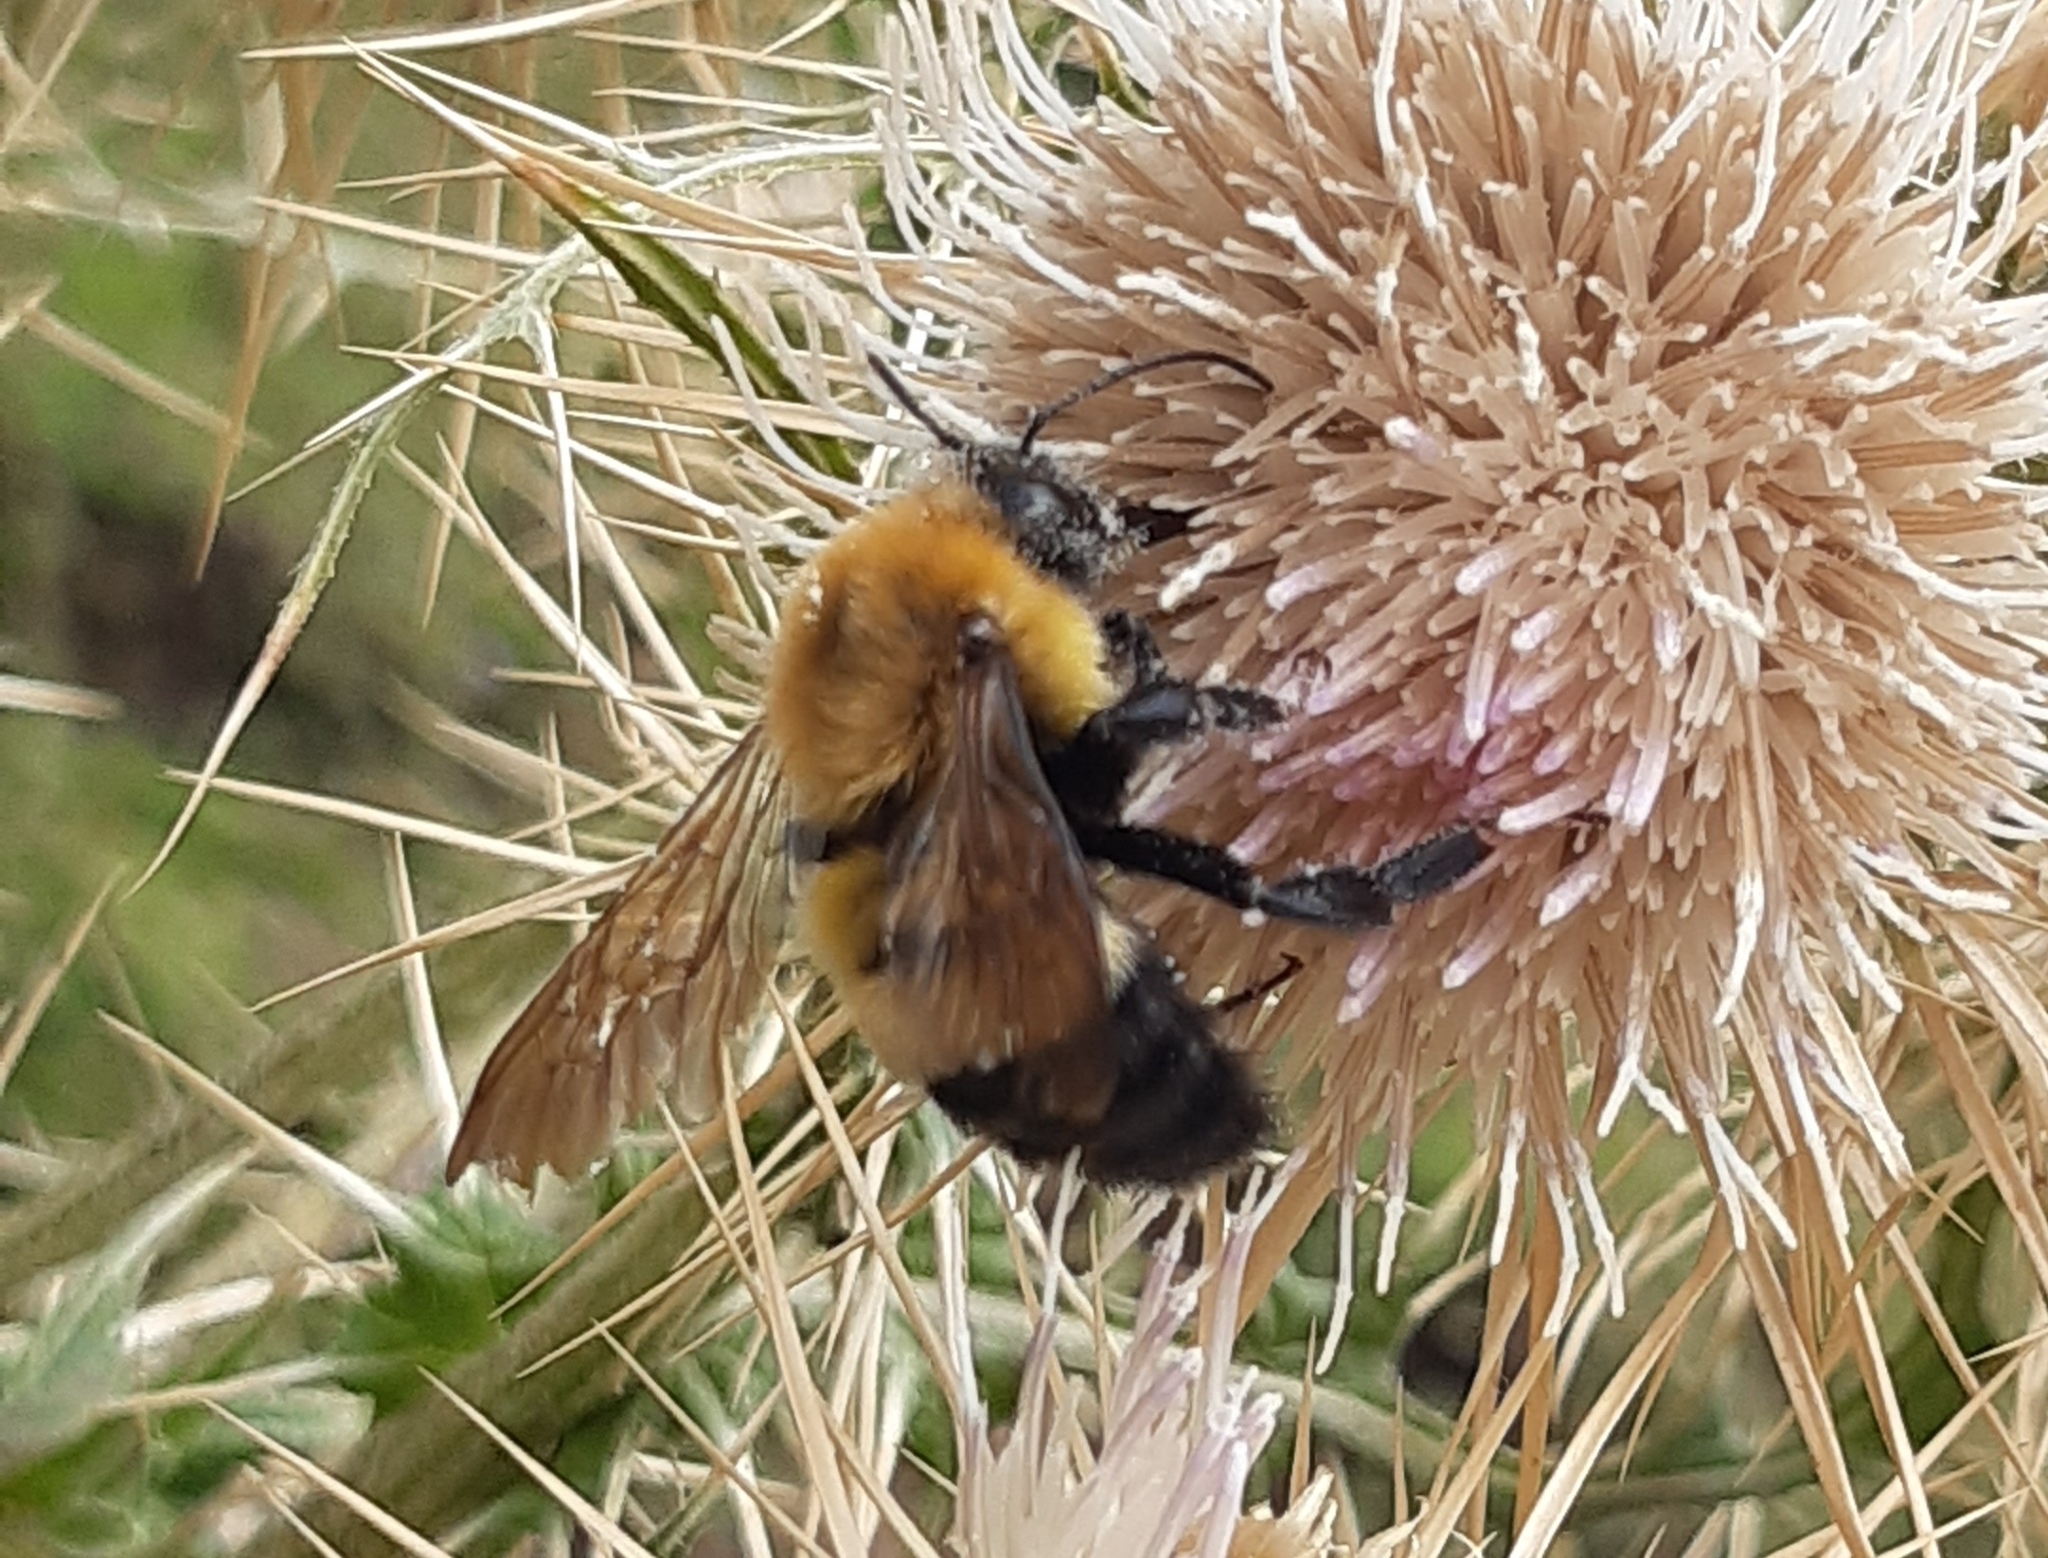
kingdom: Animalia
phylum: Arthropoda
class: Insecta
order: Hymenoptera
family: Apidae
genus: Bombus
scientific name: Bombus melanurus
